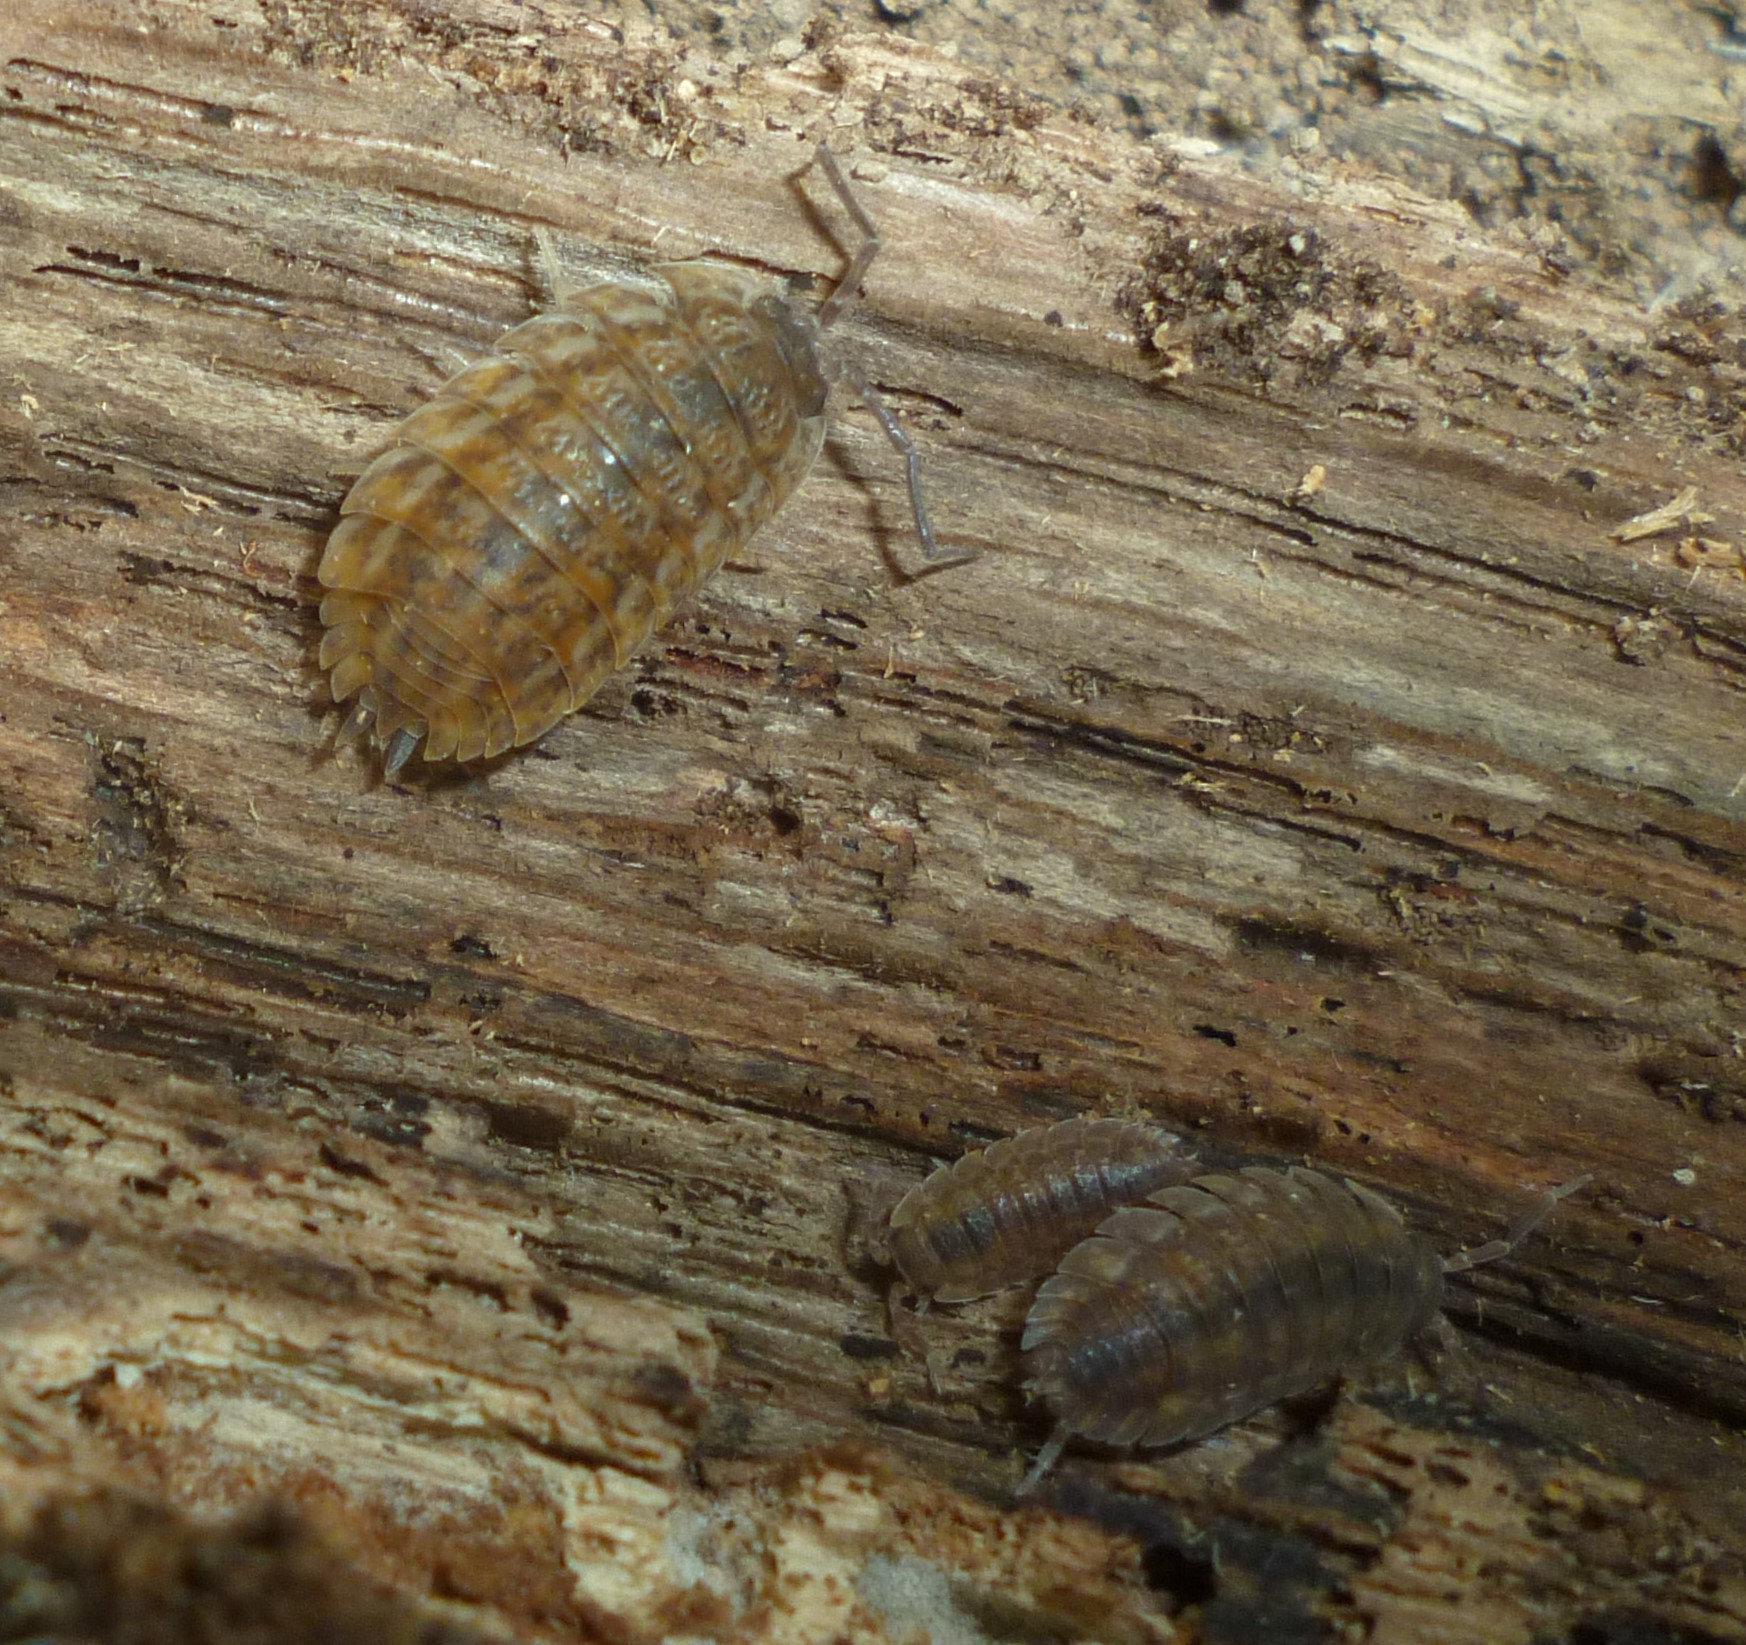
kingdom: Animalia
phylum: Arthropoda
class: Malacostraca
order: Isopoda
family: Trachelipodidae
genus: Trachelipus
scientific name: Trachelipus rathkii
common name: Isopod
